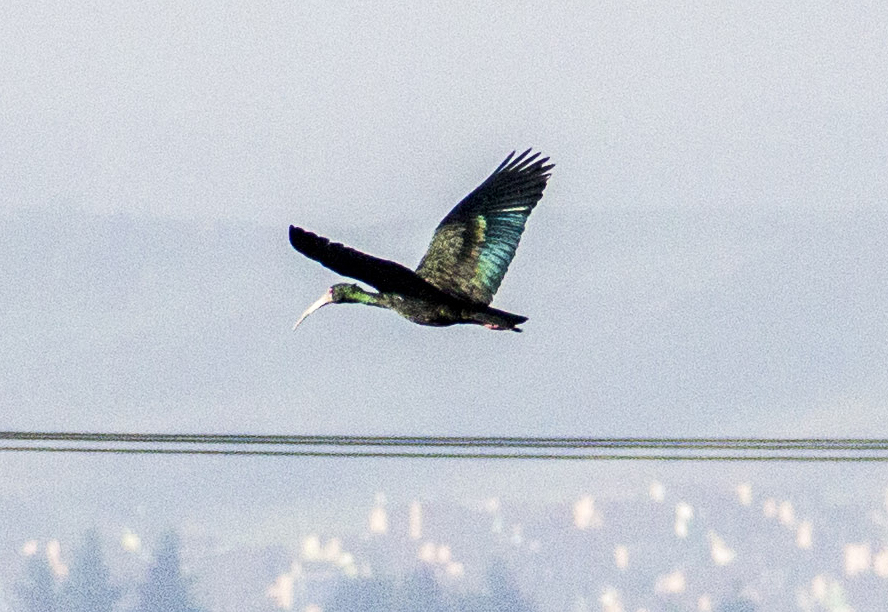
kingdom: Animalia
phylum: Chordata
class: Aves
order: Pelecaniformes
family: Threskiornithidae
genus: Phimosus
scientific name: Phimosus infuscatus
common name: Bare-faced ibis
